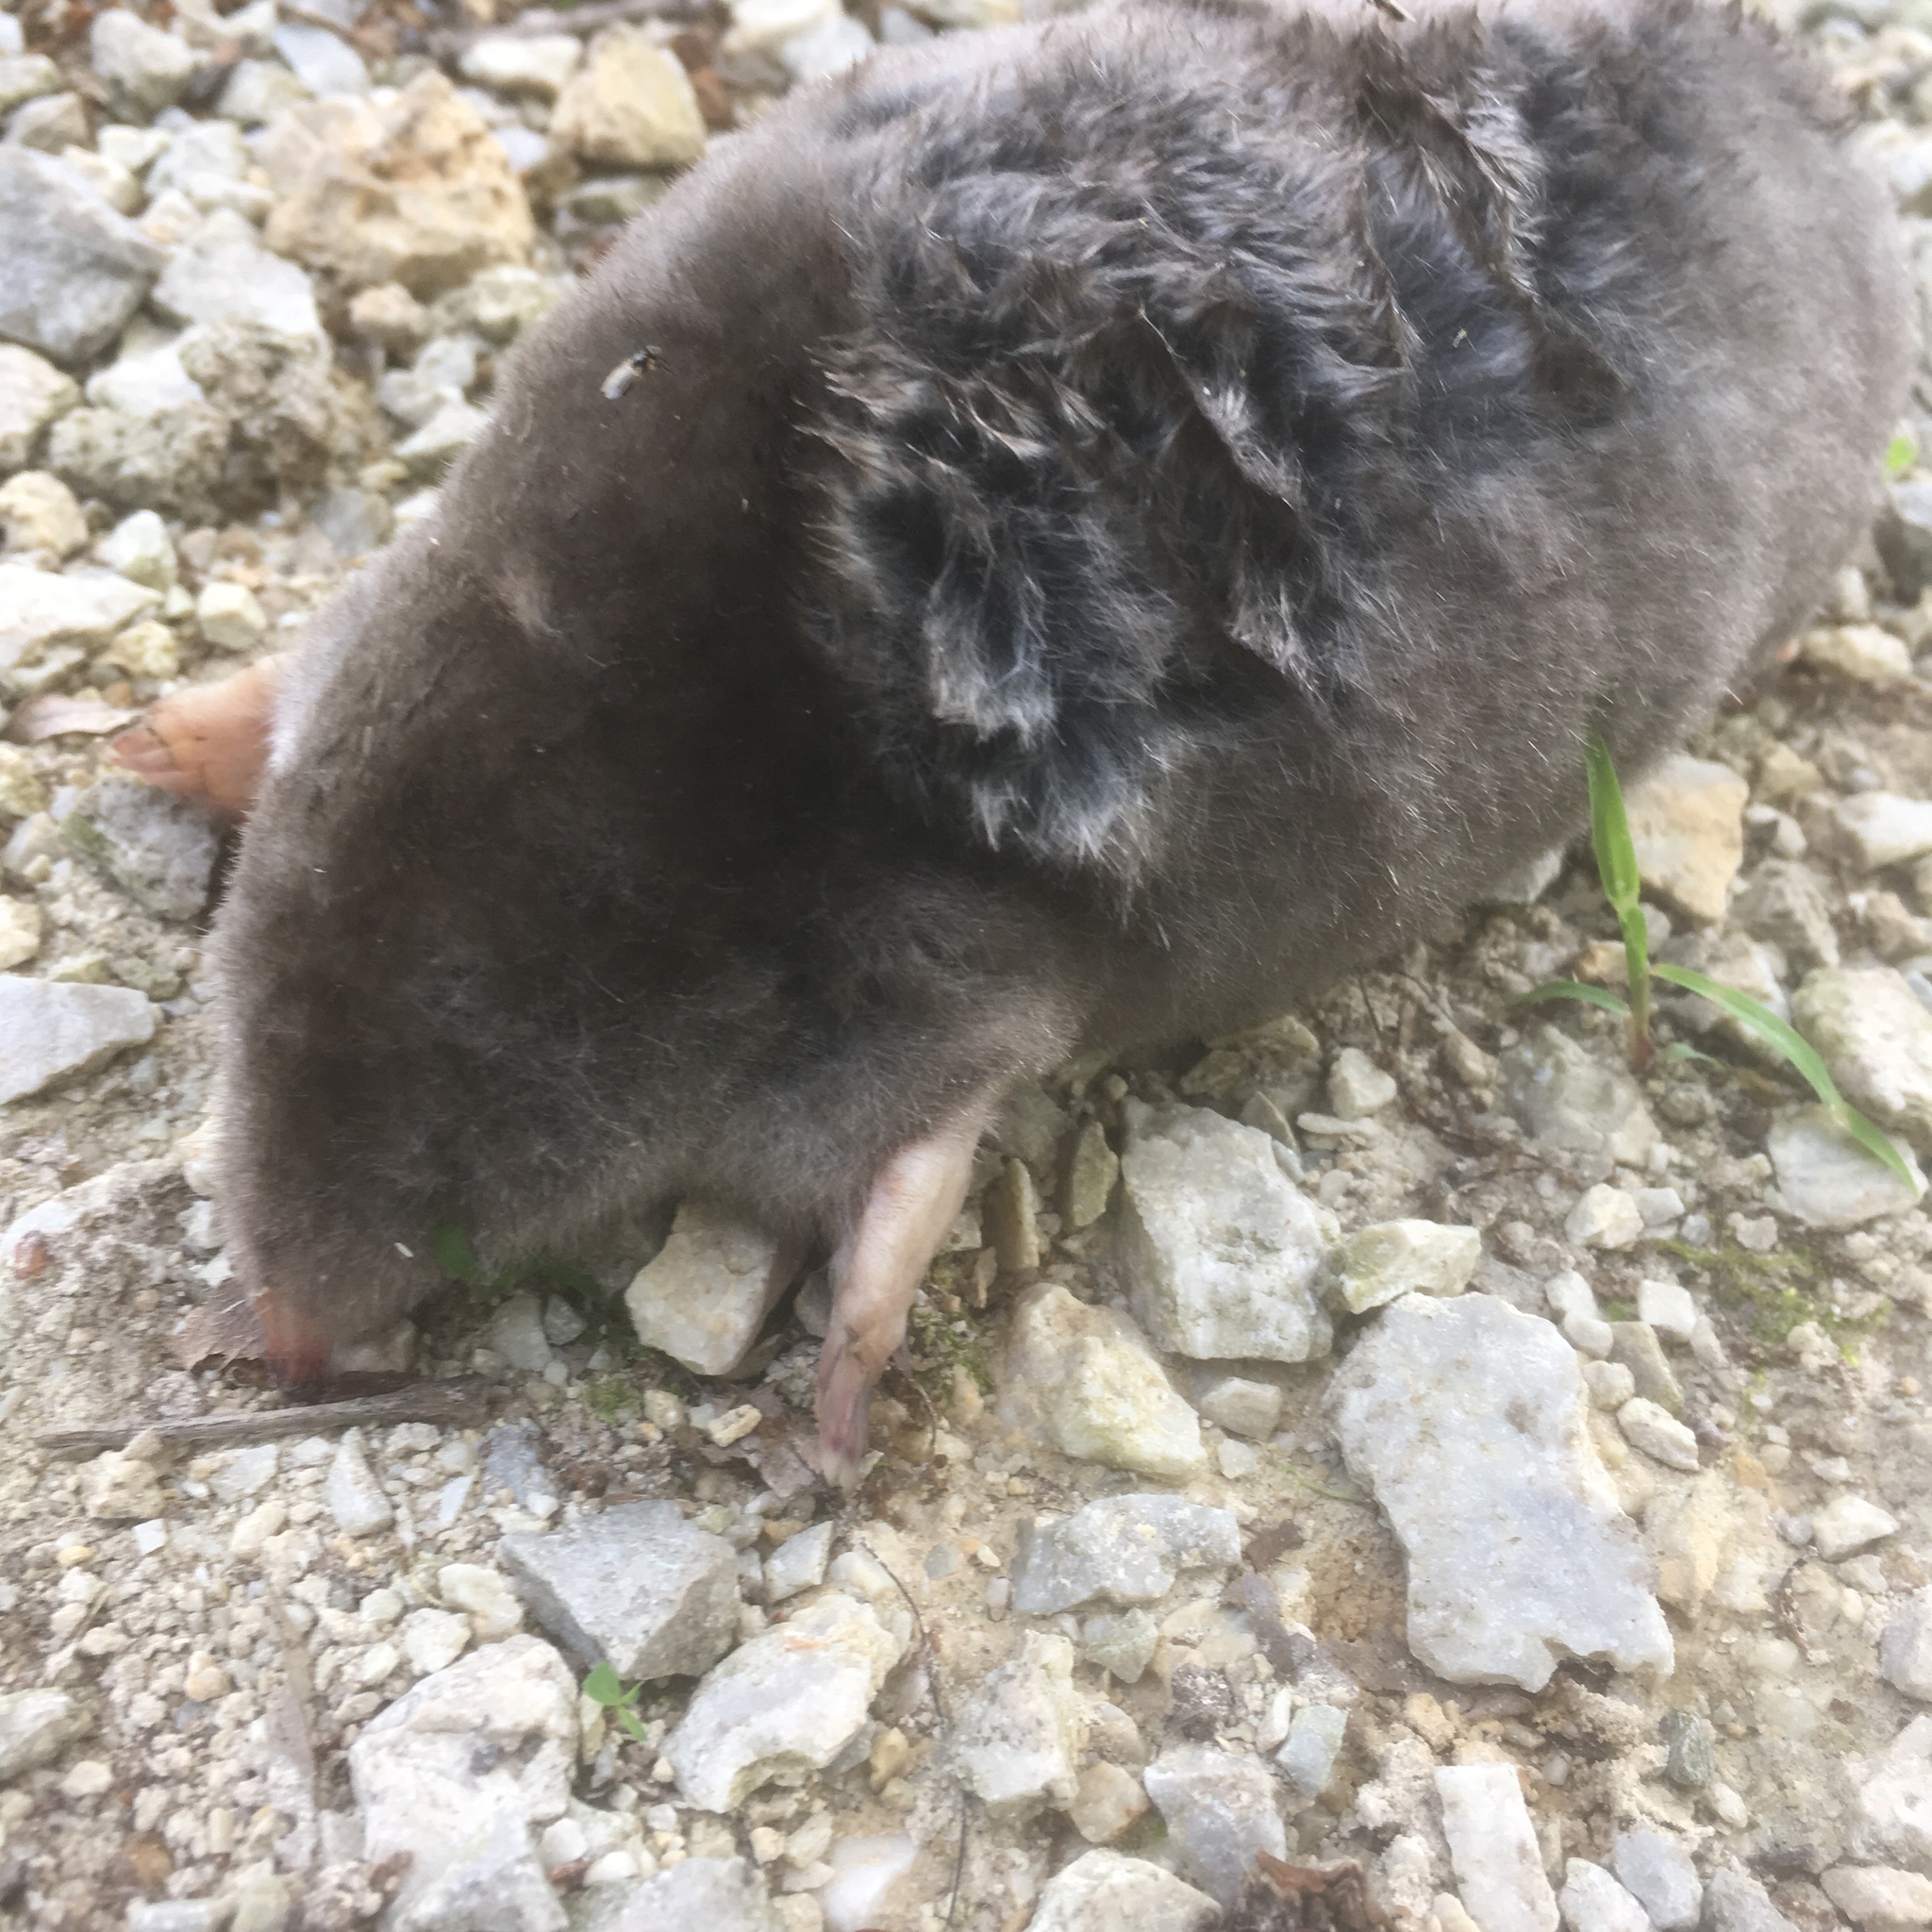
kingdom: Animalia
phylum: Chordata
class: Mammalia
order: Soricomorpha
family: Talpidae
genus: Scalopus
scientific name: Scalopus aquaticus
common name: Eastern mole
